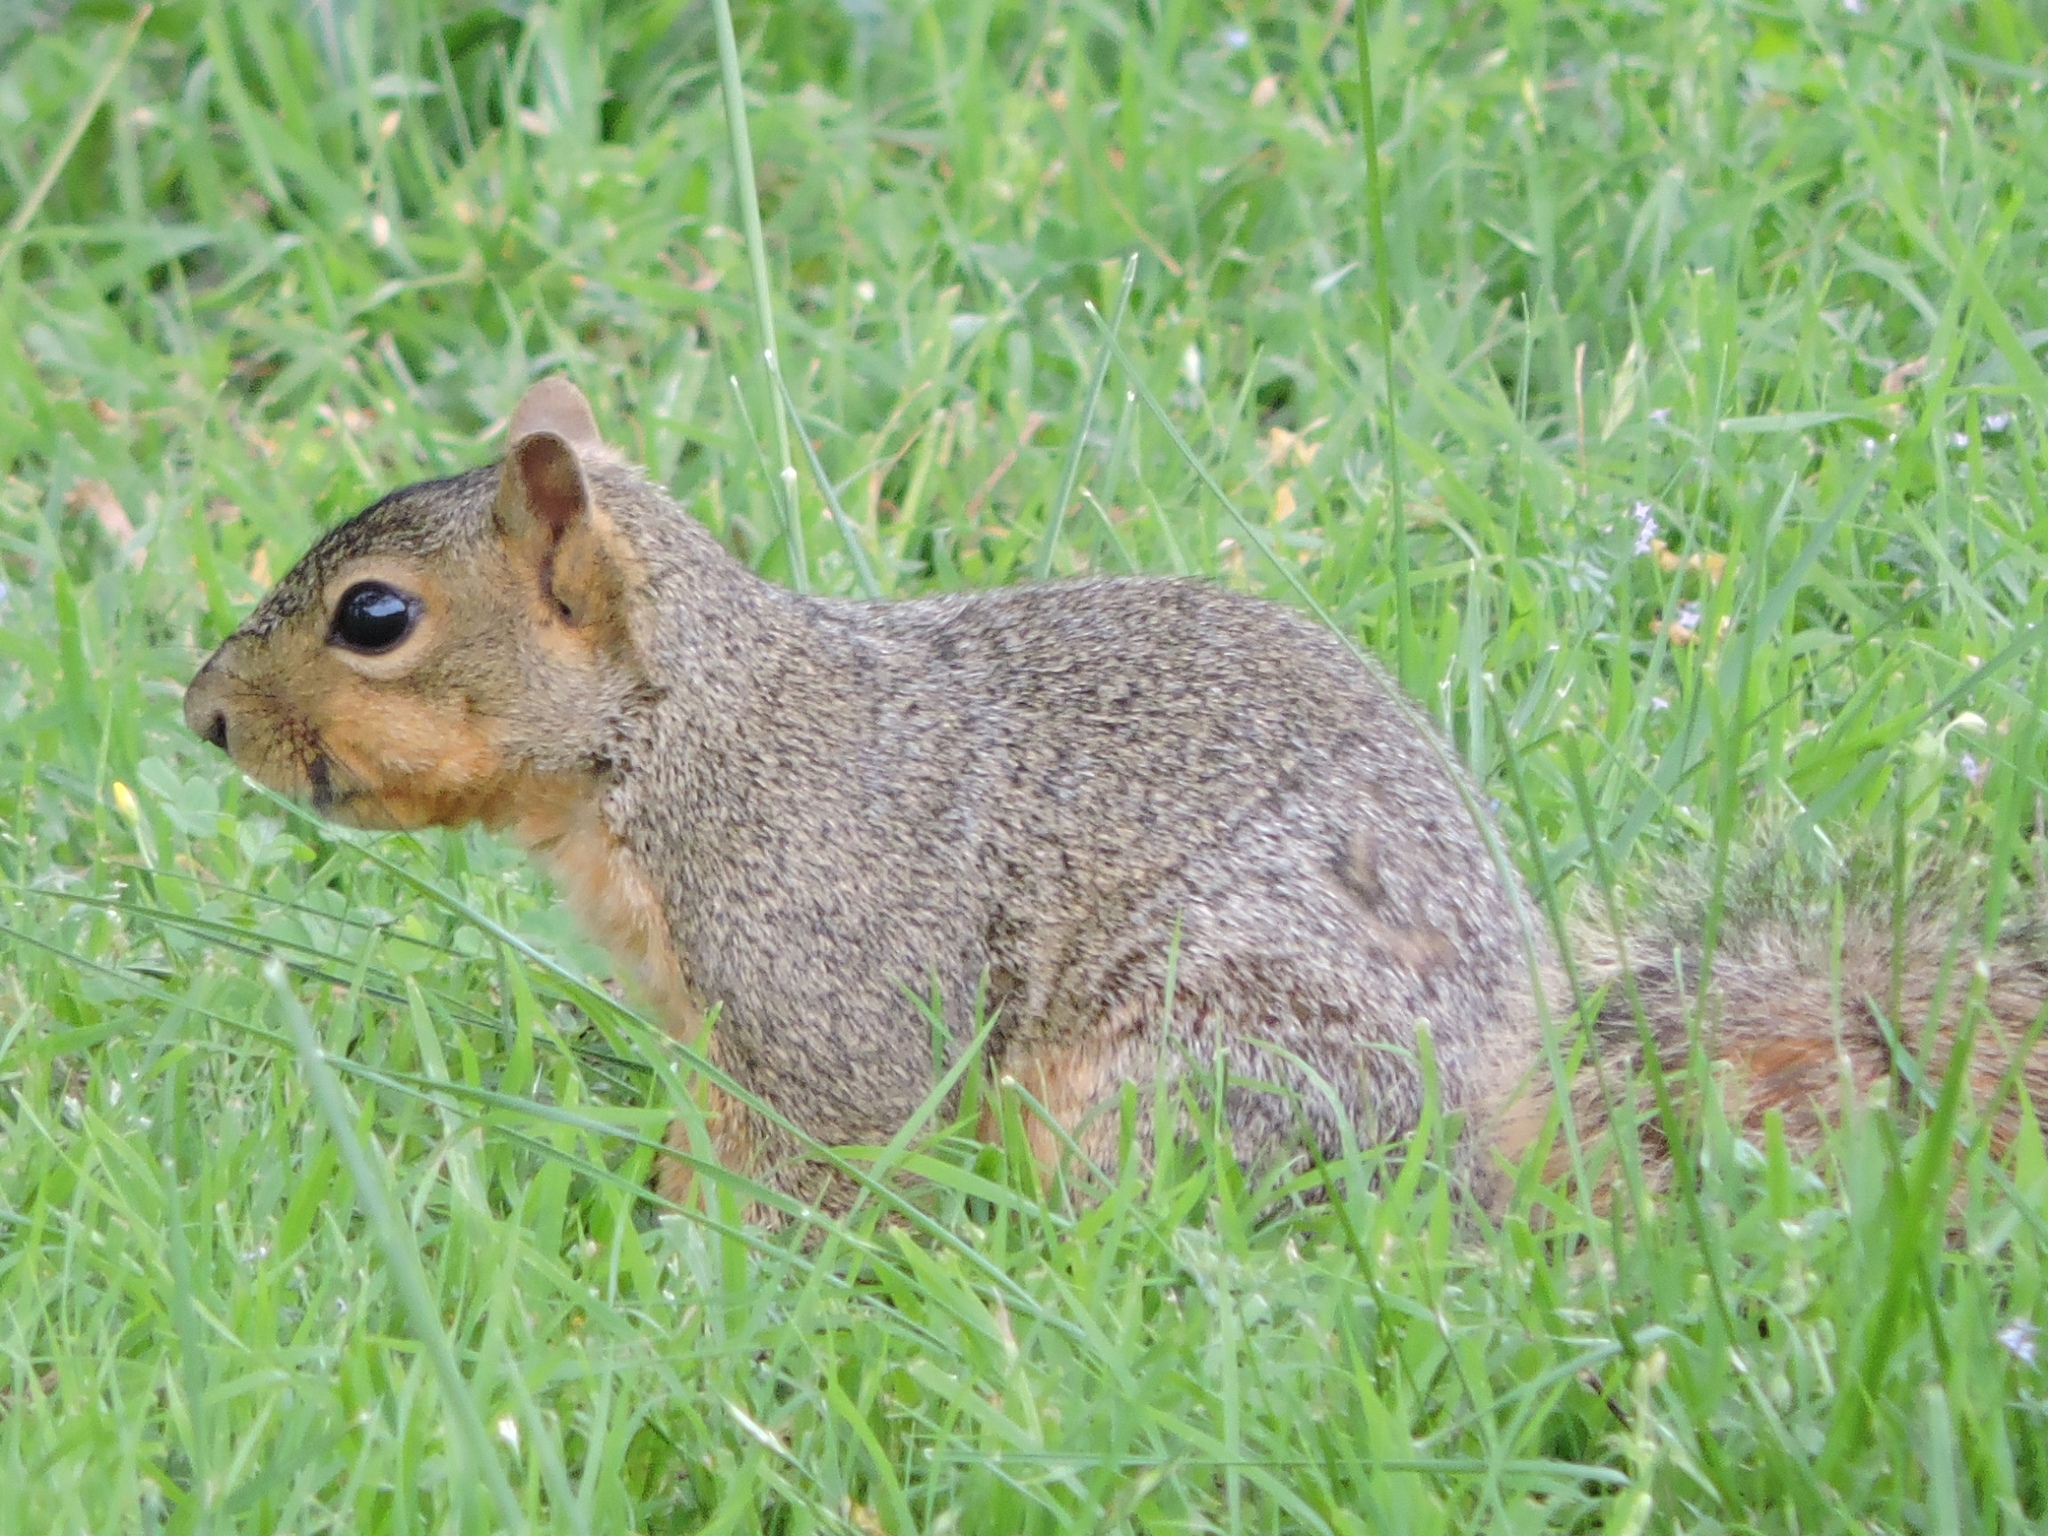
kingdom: Animalia
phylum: Chordata
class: Mammalia
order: Rodentia
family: Sciuridae
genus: Sciurus
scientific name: Sciurus niger
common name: Fox squirrel
